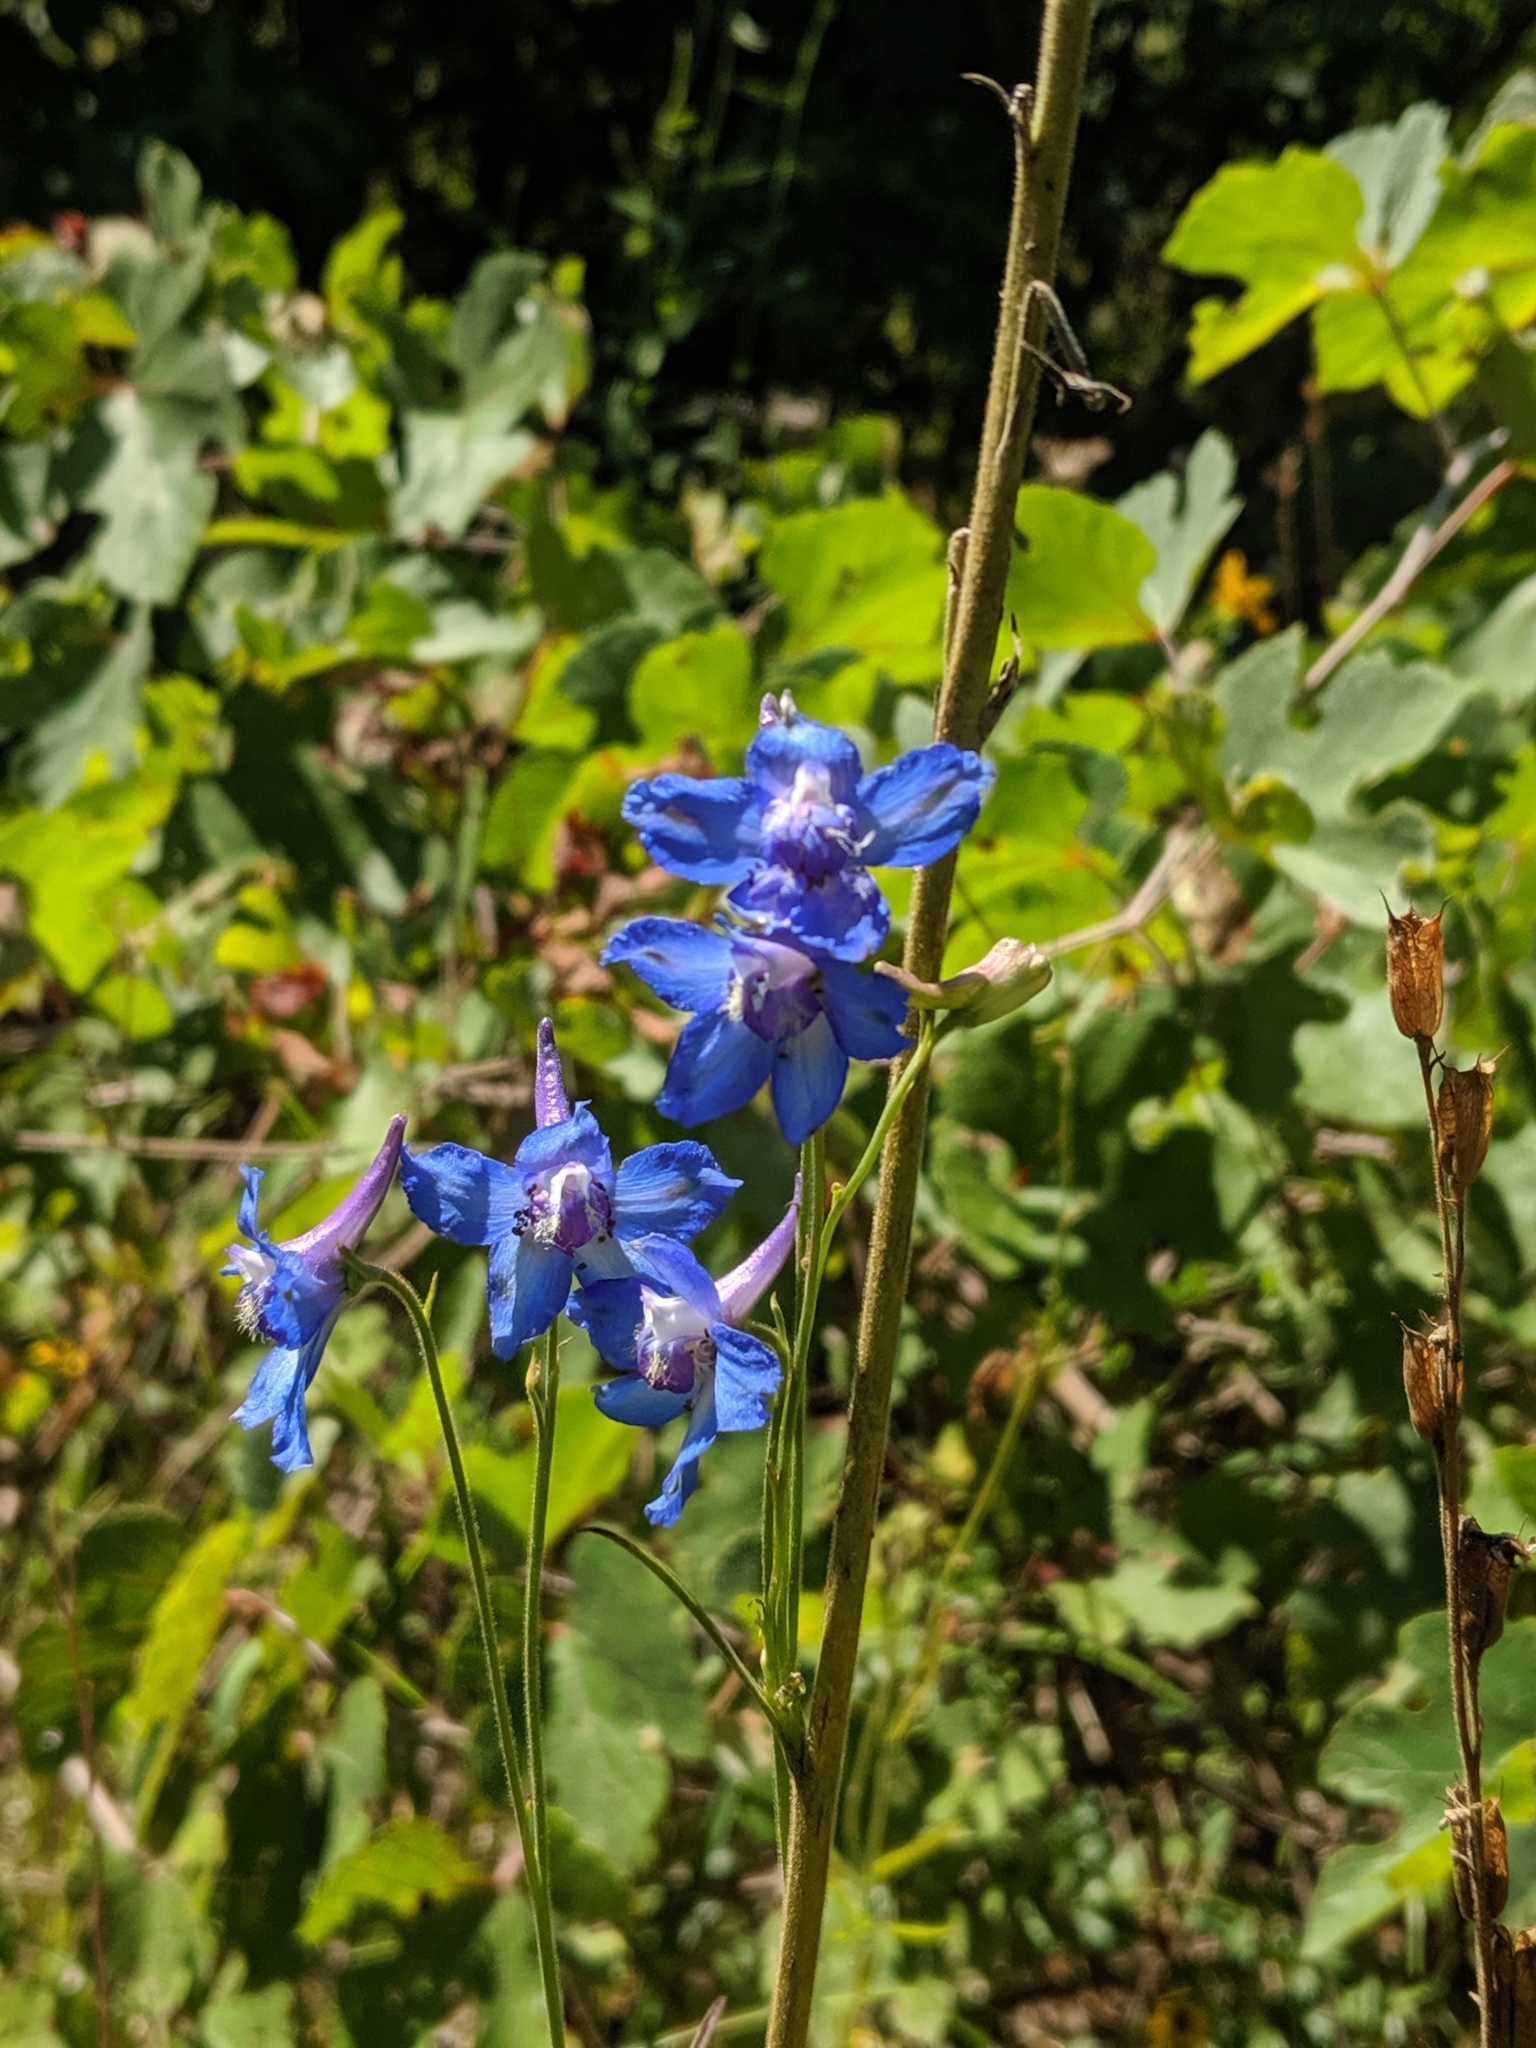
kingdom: Plantae
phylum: Tracheophyta
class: Magnoliopsida
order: Ranunculales
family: Ranunculaceae
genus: Delphinium
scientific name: Delphinium carolinianum
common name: Carolina larkspur
